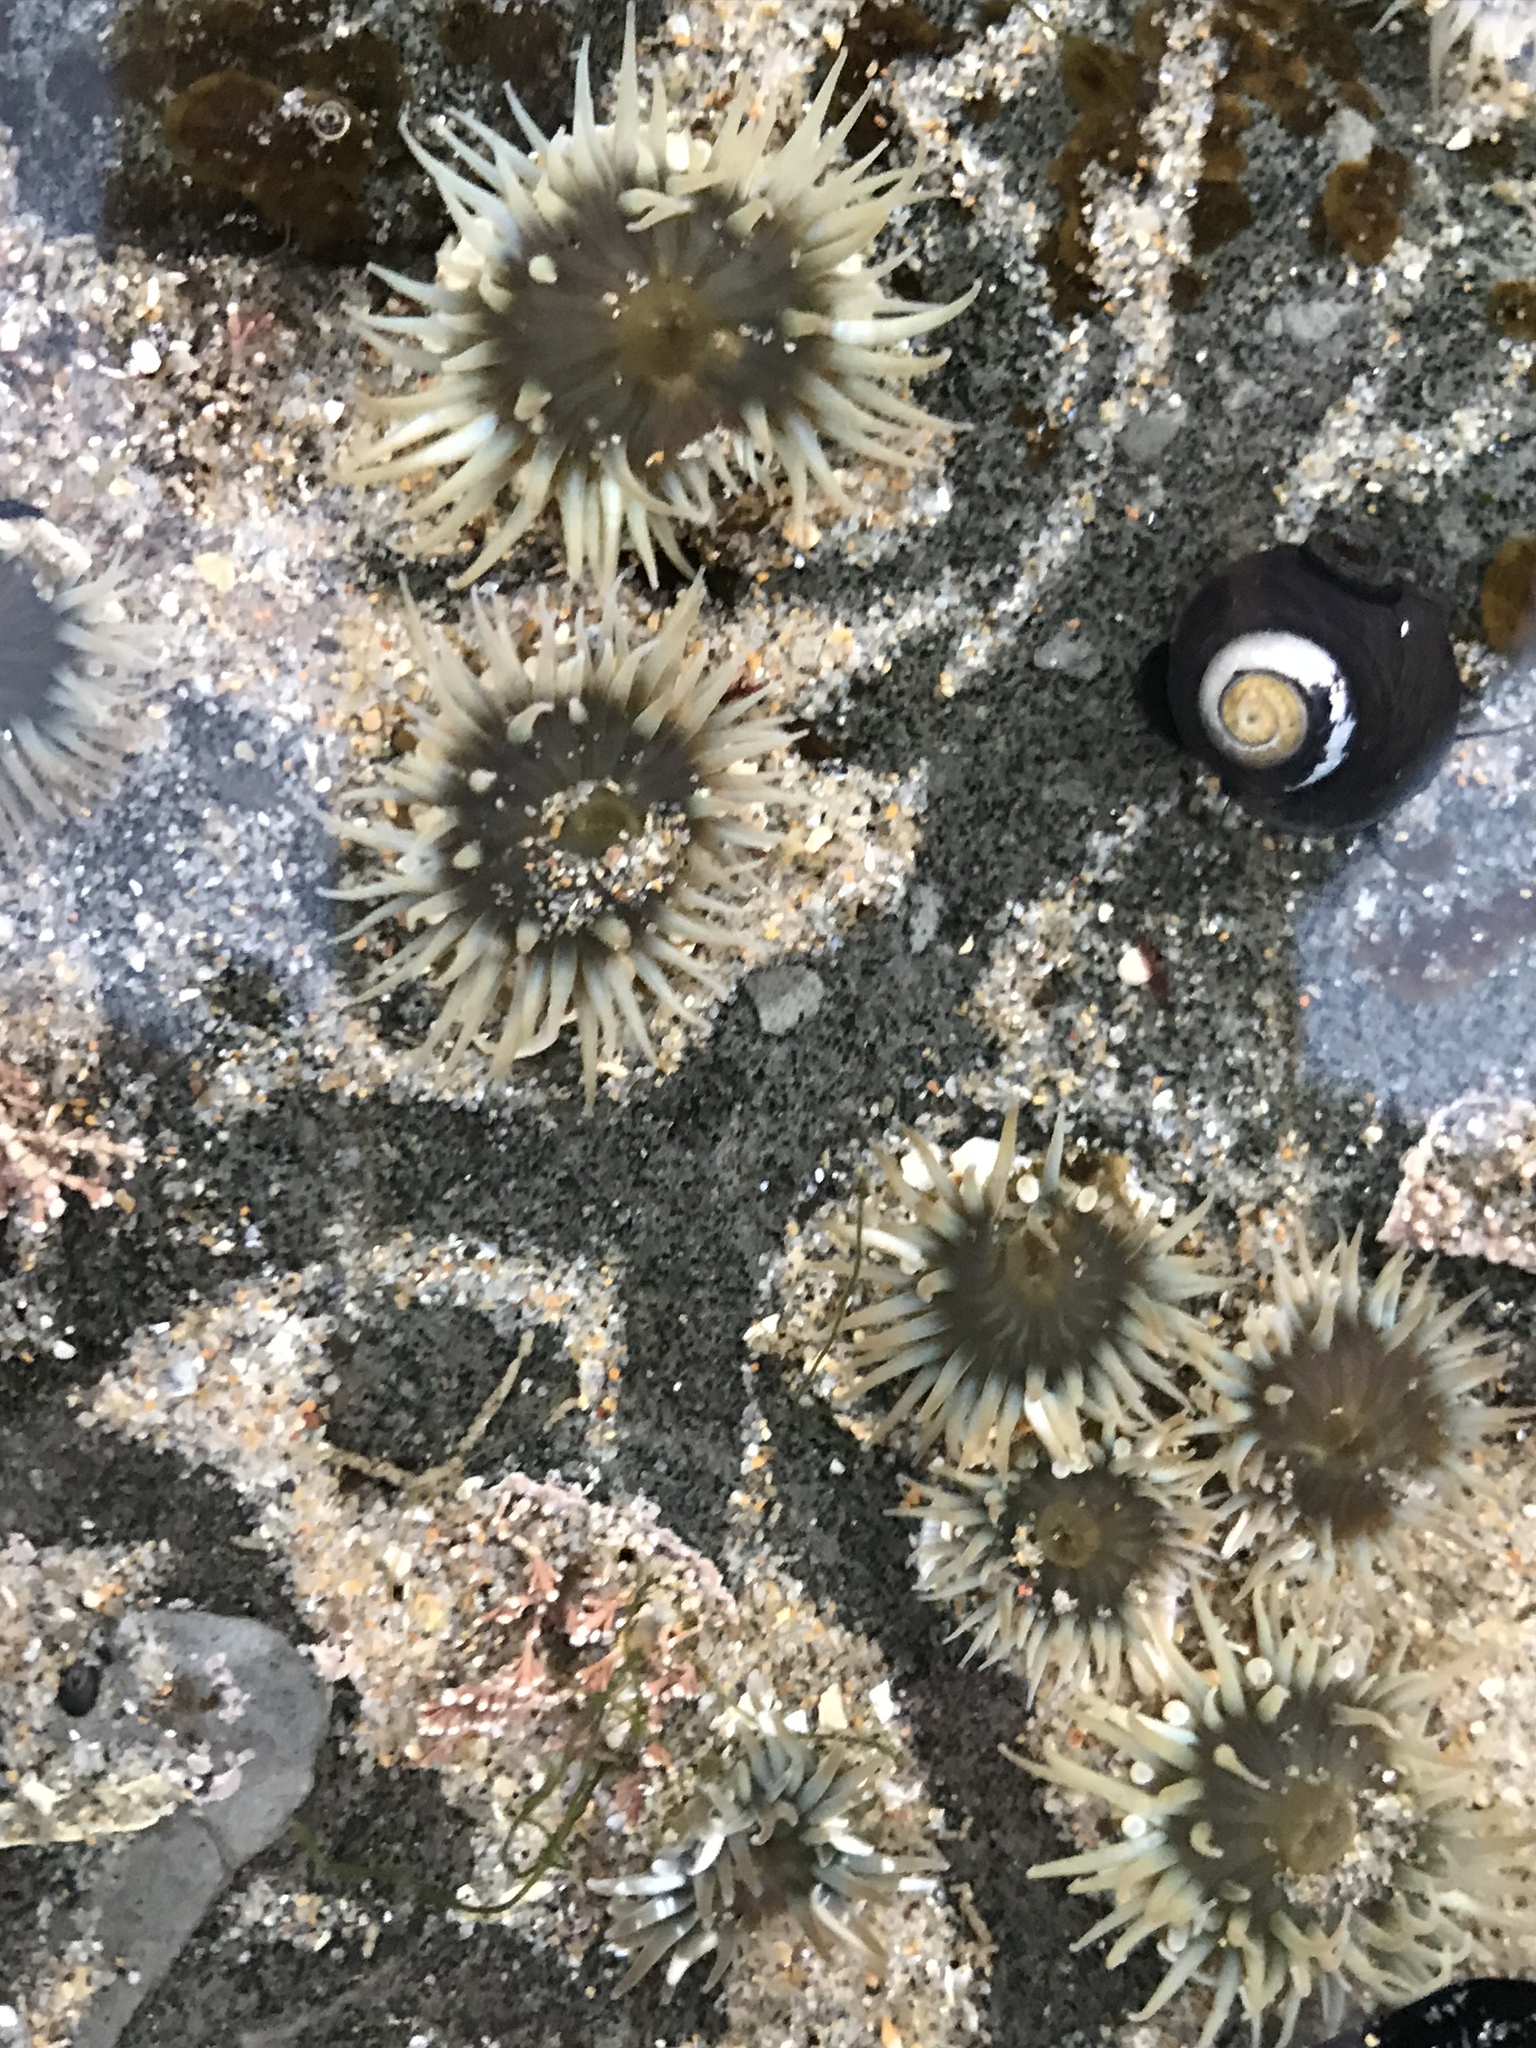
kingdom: Animalia
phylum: Cnidaria
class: Anthozoa
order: Actiniaria
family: Actiniidae
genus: Anthopleura
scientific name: Anthopleura elegantissima
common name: Clonal anemone
